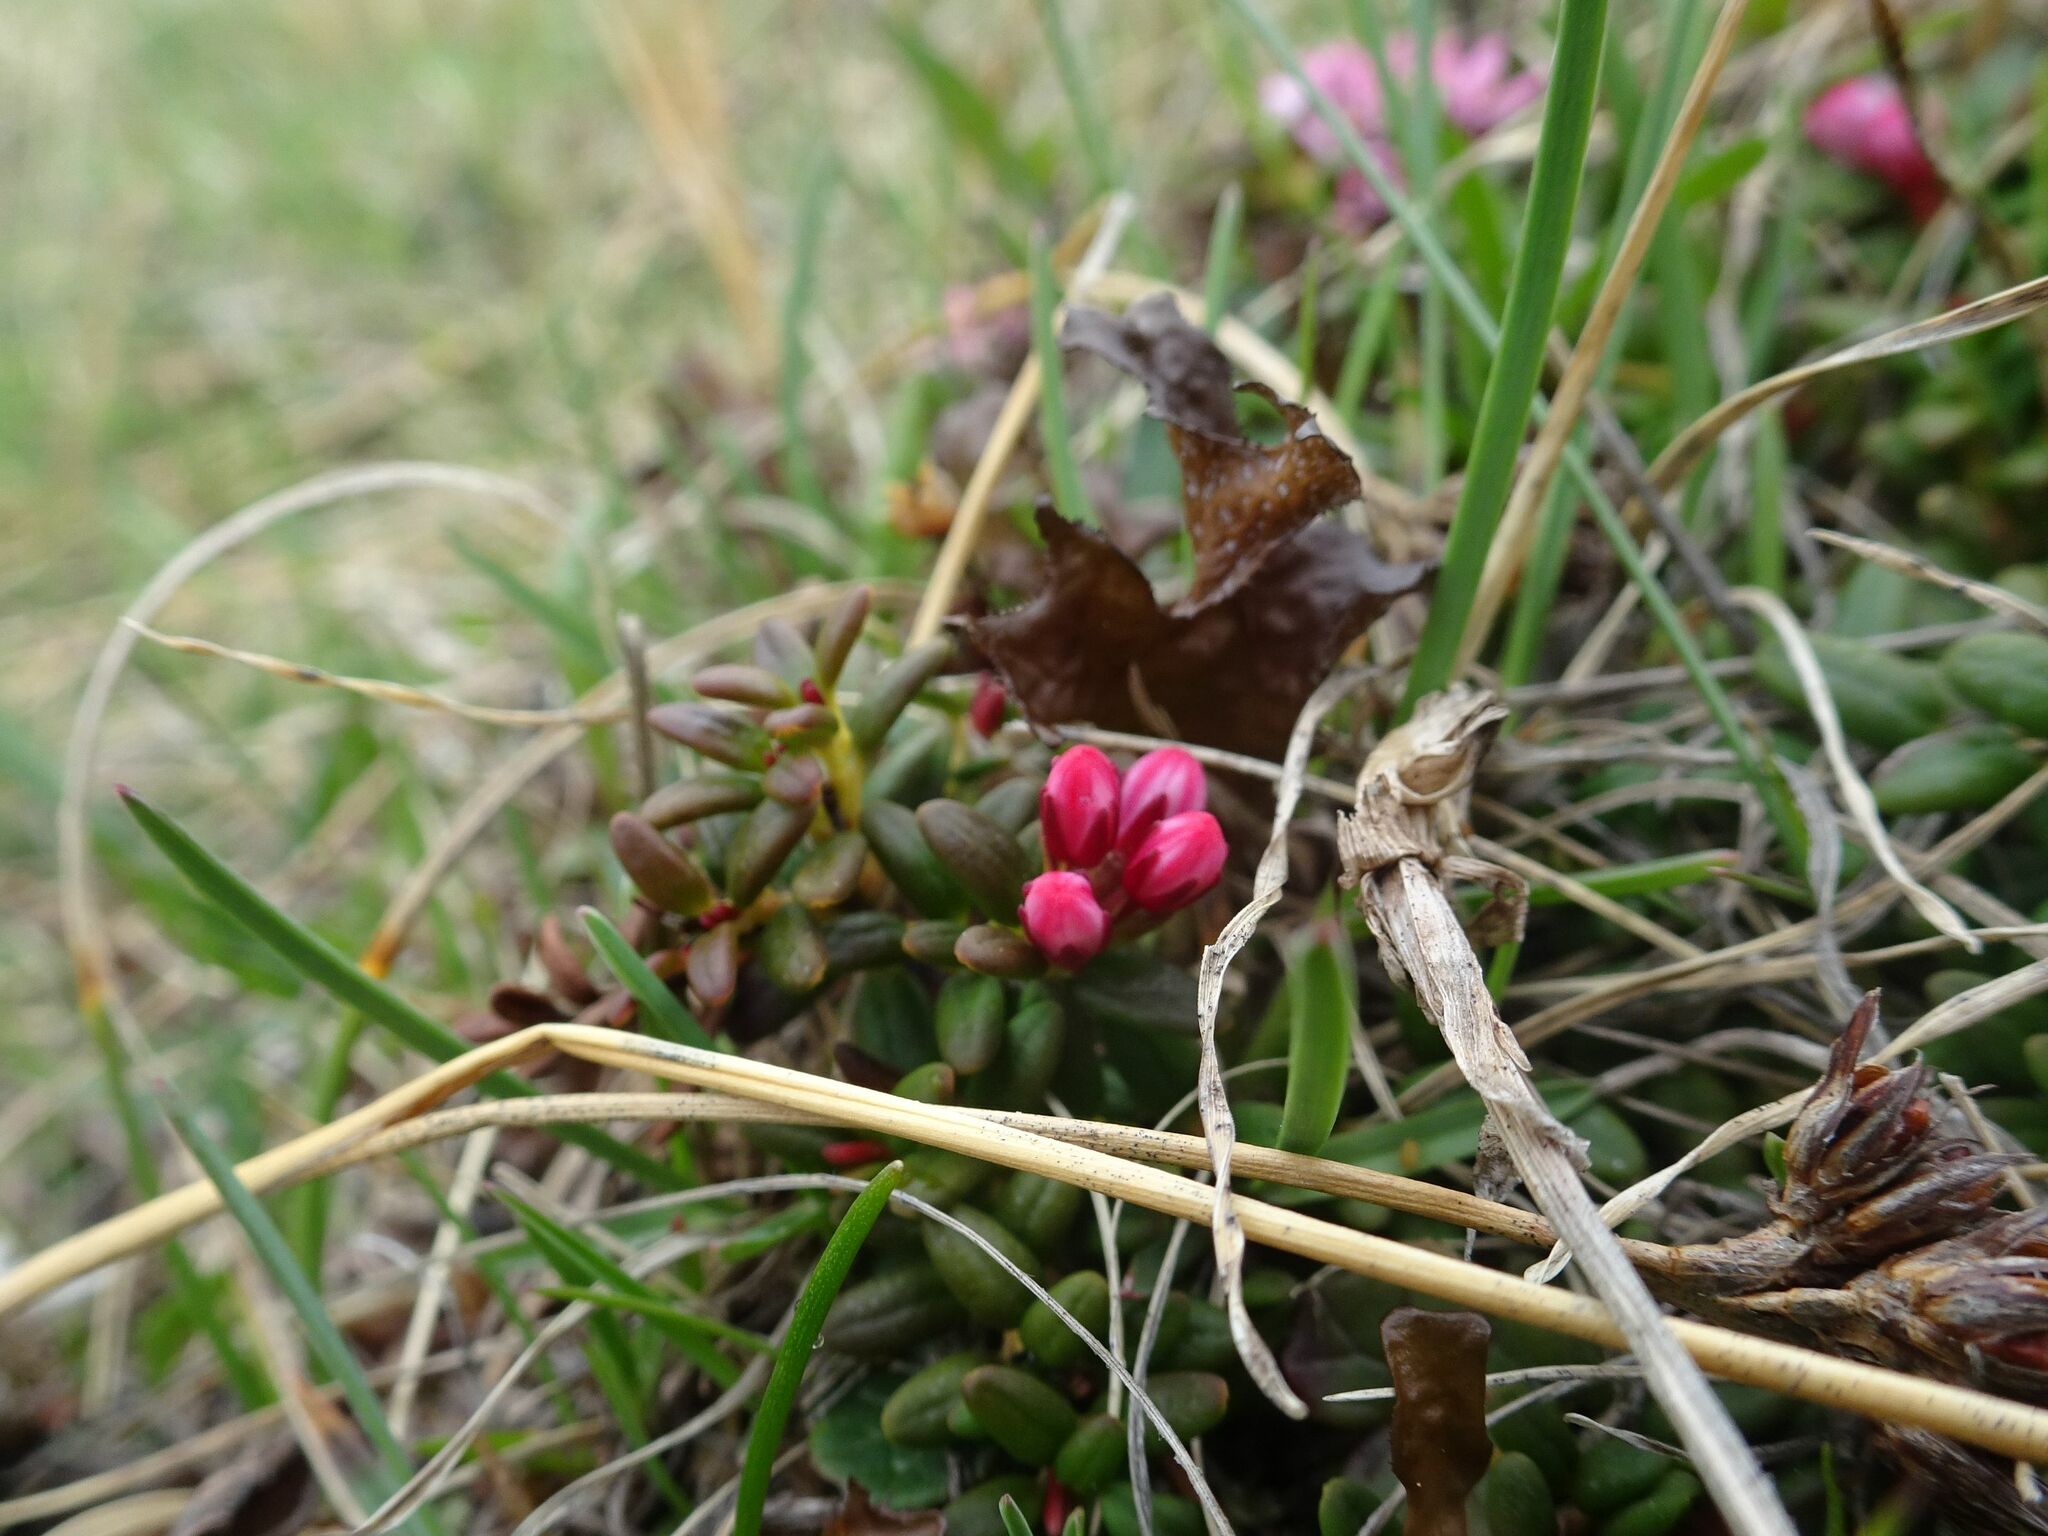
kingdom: Plantae
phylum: Tracheophyta
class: Magnoliopsida
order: Ericales
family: Ericaceae
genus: Kalmia
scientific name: Kalmia procumbens
